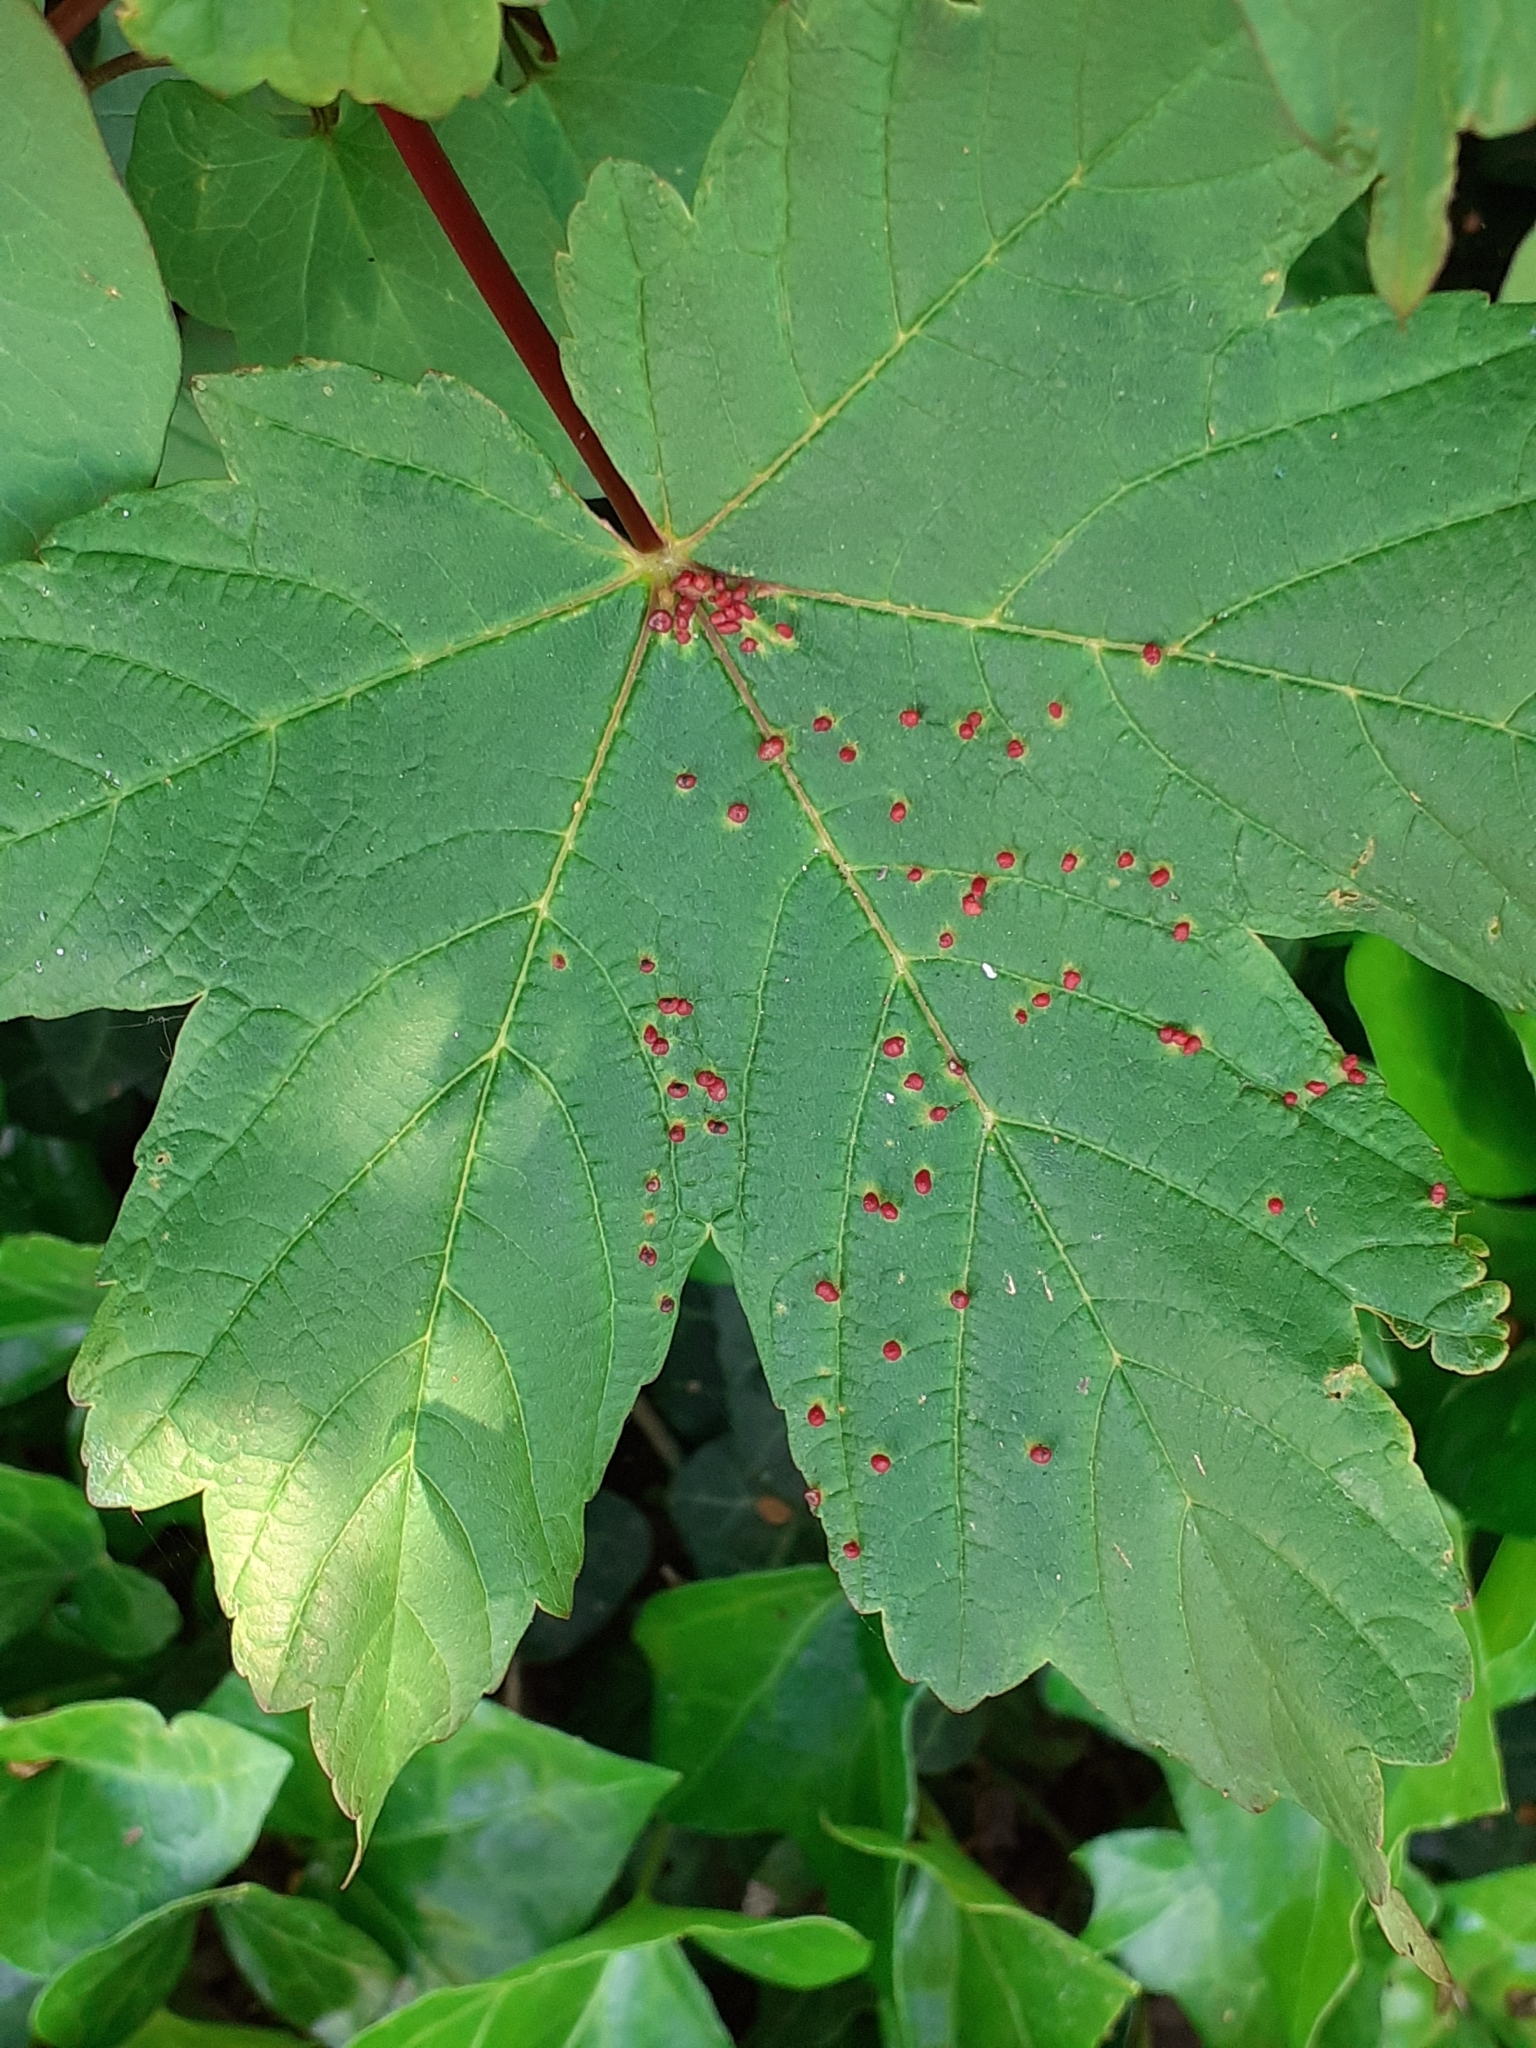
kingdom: Animalia
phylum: Arthropoda
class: Arachnida
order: Trombidiformes
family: Eriophyidae
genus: Aceria
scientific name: Aceria cephaloneus
